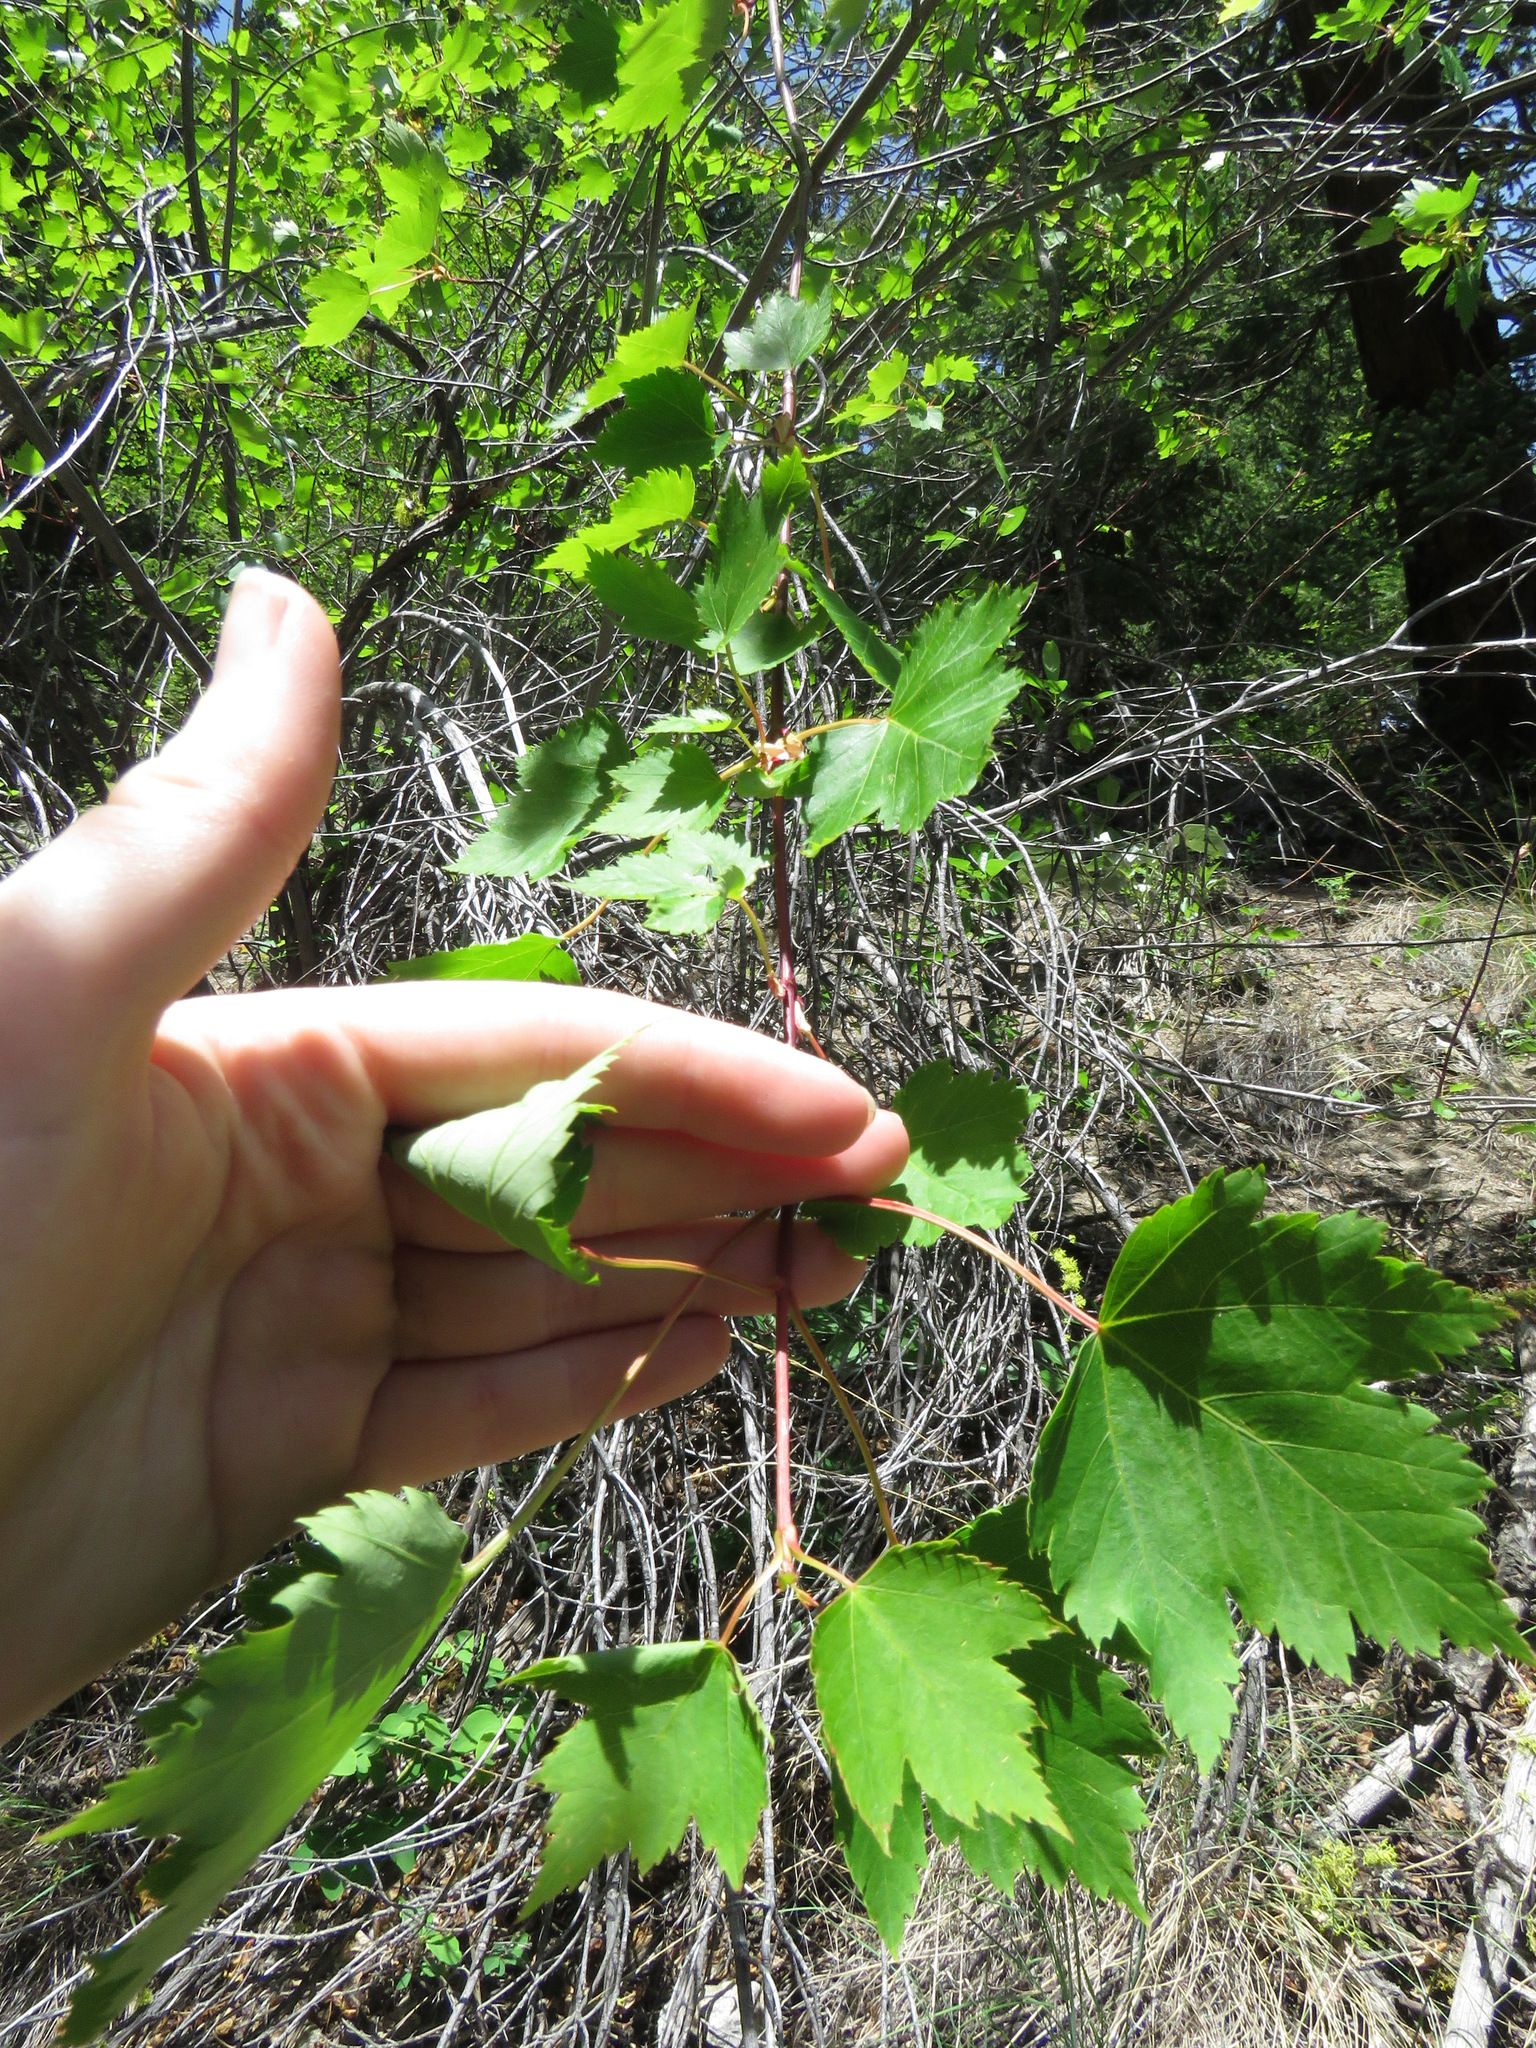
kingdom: Plantae
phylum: Tracheophyta
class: Magnoliopsida
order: Sapindales
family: Sapindaceae
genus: Acer
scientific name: Acer glabrum
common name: Rocky mountain maple
